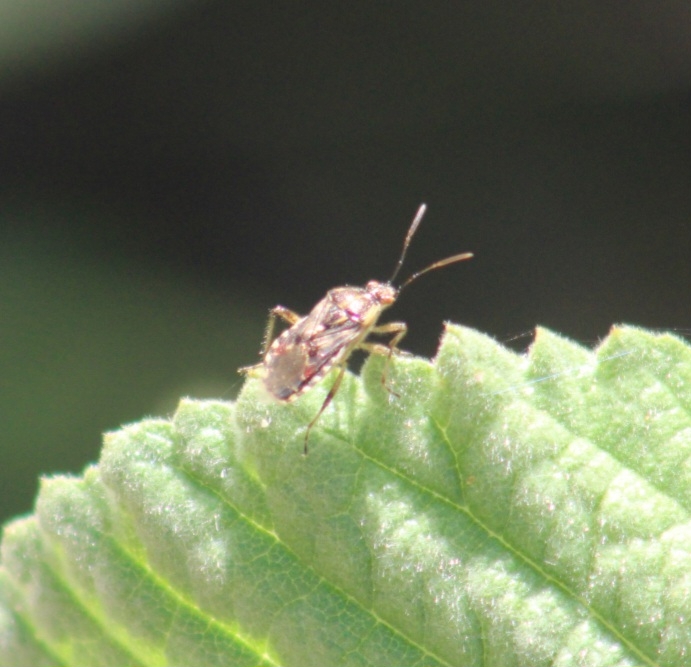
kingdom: Animalia
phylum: Arthropoda
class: Insecta
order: Hemiptera
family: Rhopalidae
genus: Liorhyssus
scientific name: Liorhyssus hyalinus
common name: Scentless plant bug
